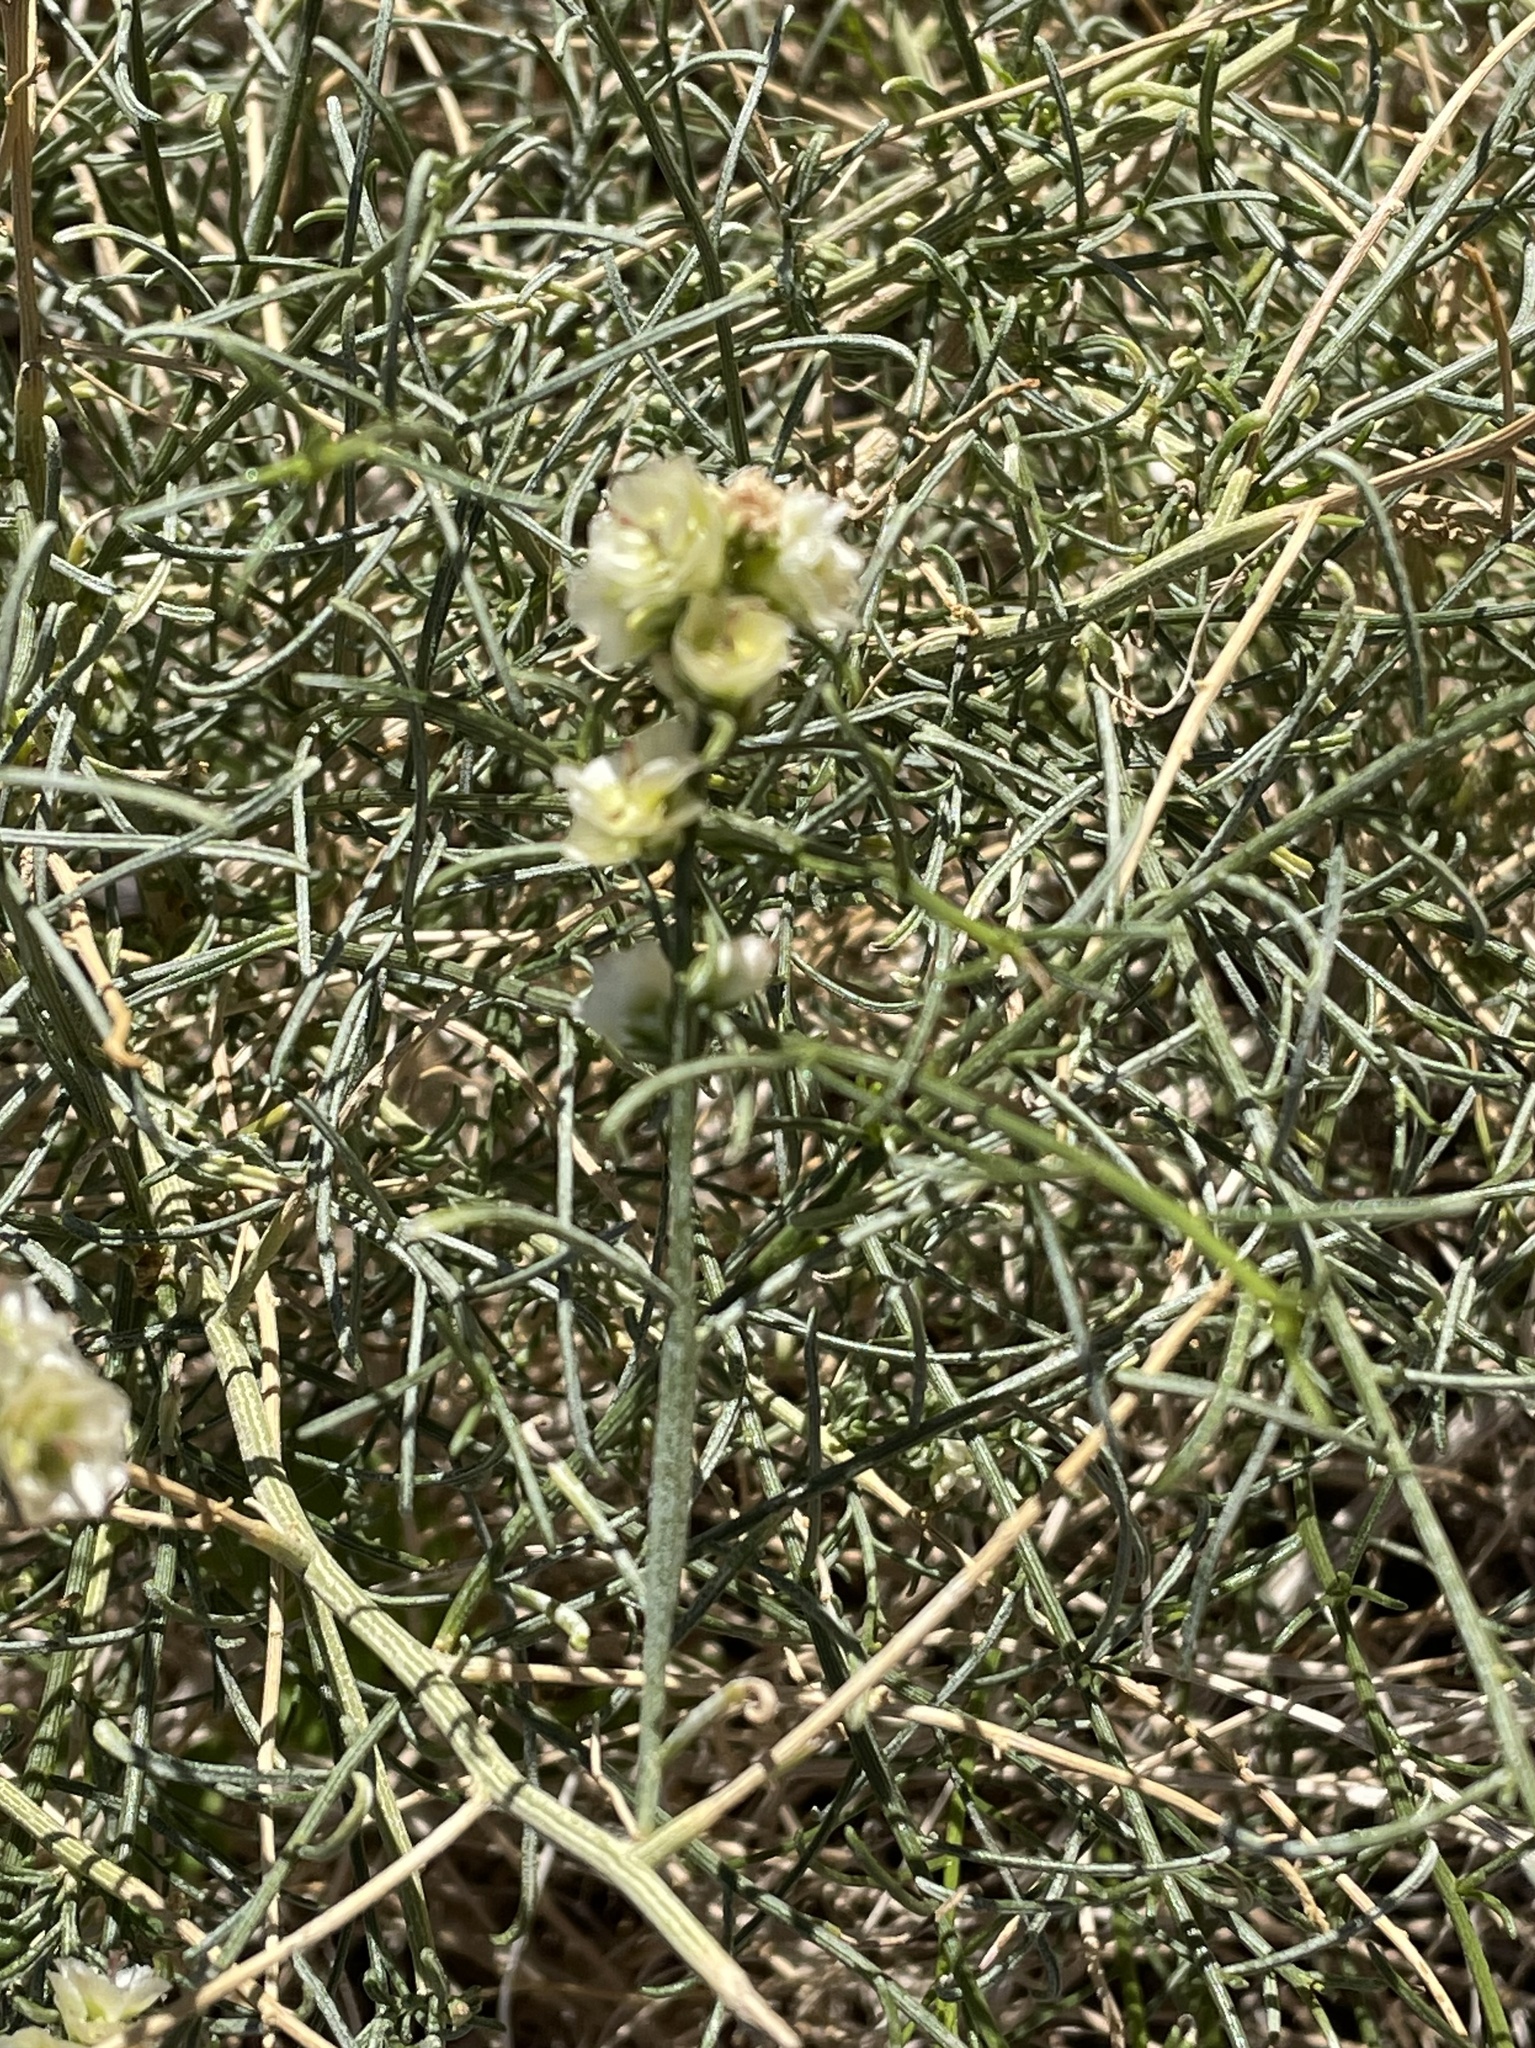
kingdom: Plantae
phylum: Tracheophyta
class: Magnoliopsida
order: Asterales
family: Asteraceae
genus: Ambrosia
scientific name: Ambrosia salsola
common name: Burrobrush
